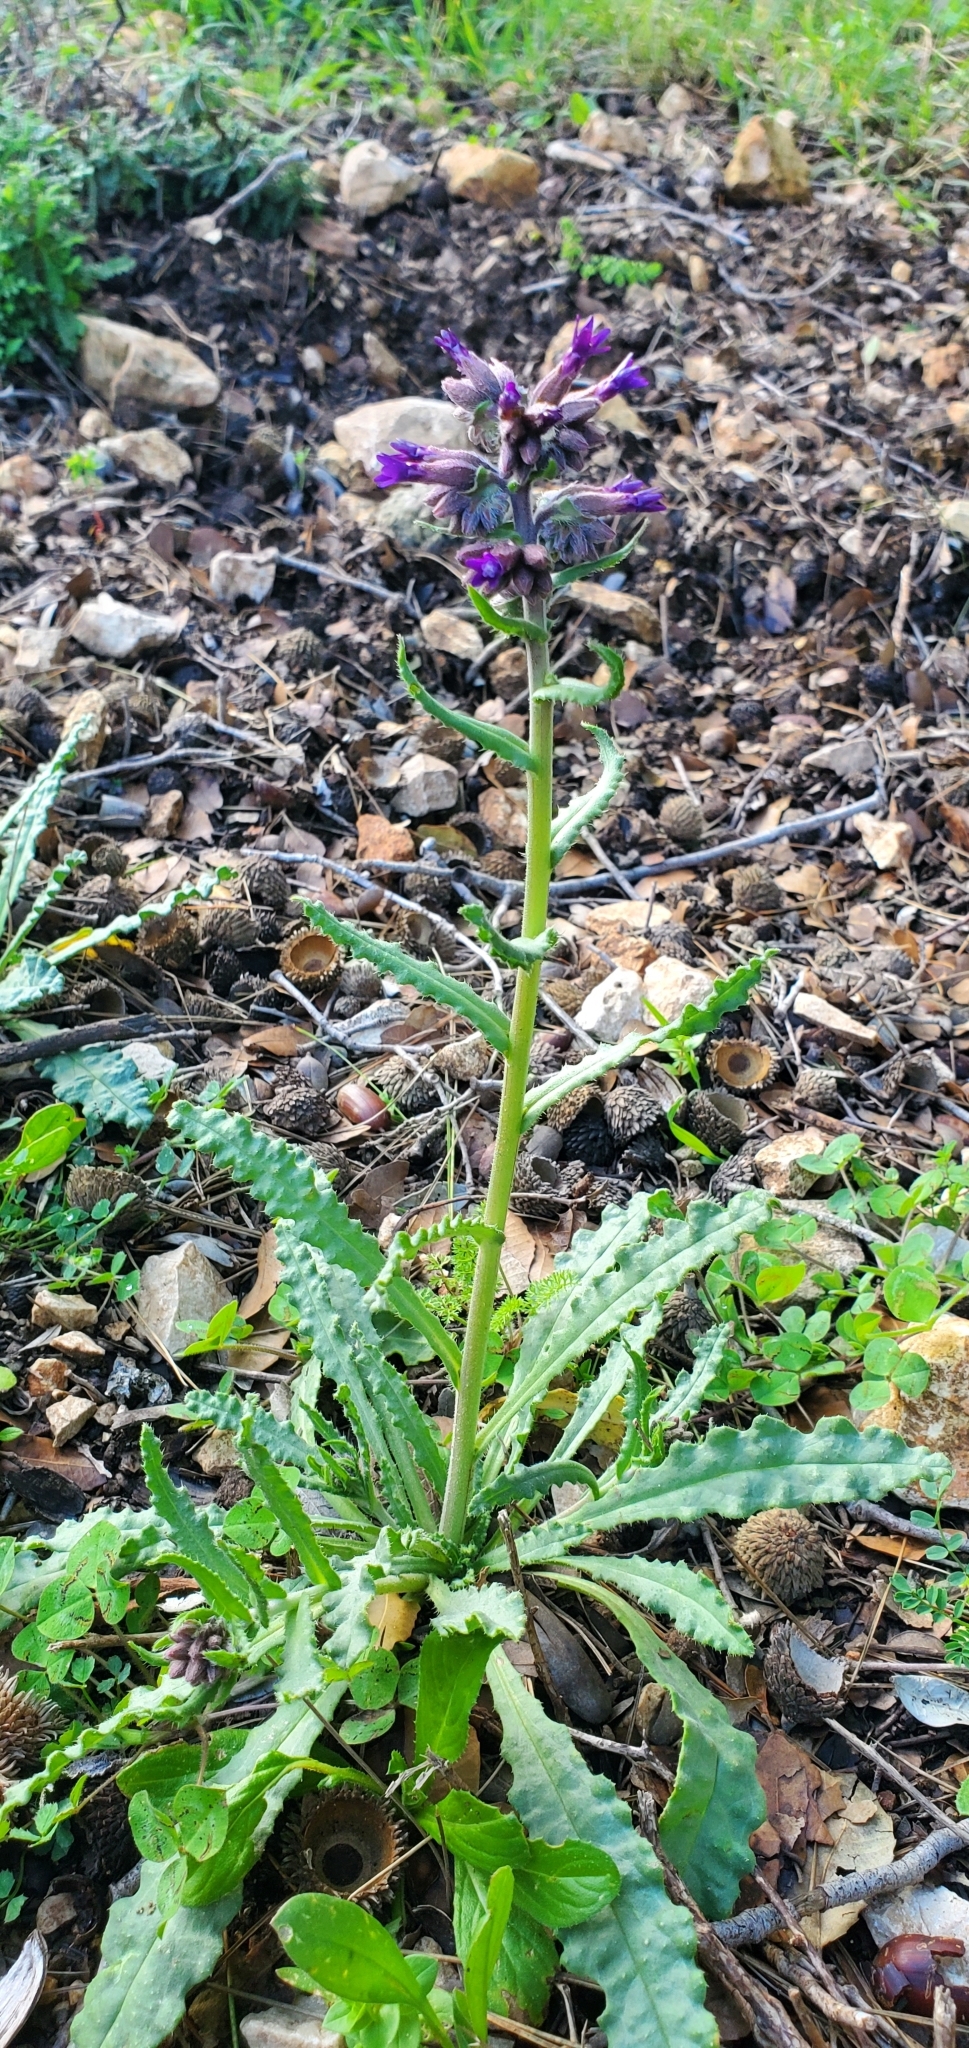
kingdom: Plantae
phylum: Tracheophyta
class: Magnoliopsida
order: Boraginales
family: Boraginaceae
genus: Anchusa
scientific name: Anchusa undulata
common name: Undulate alkanet
